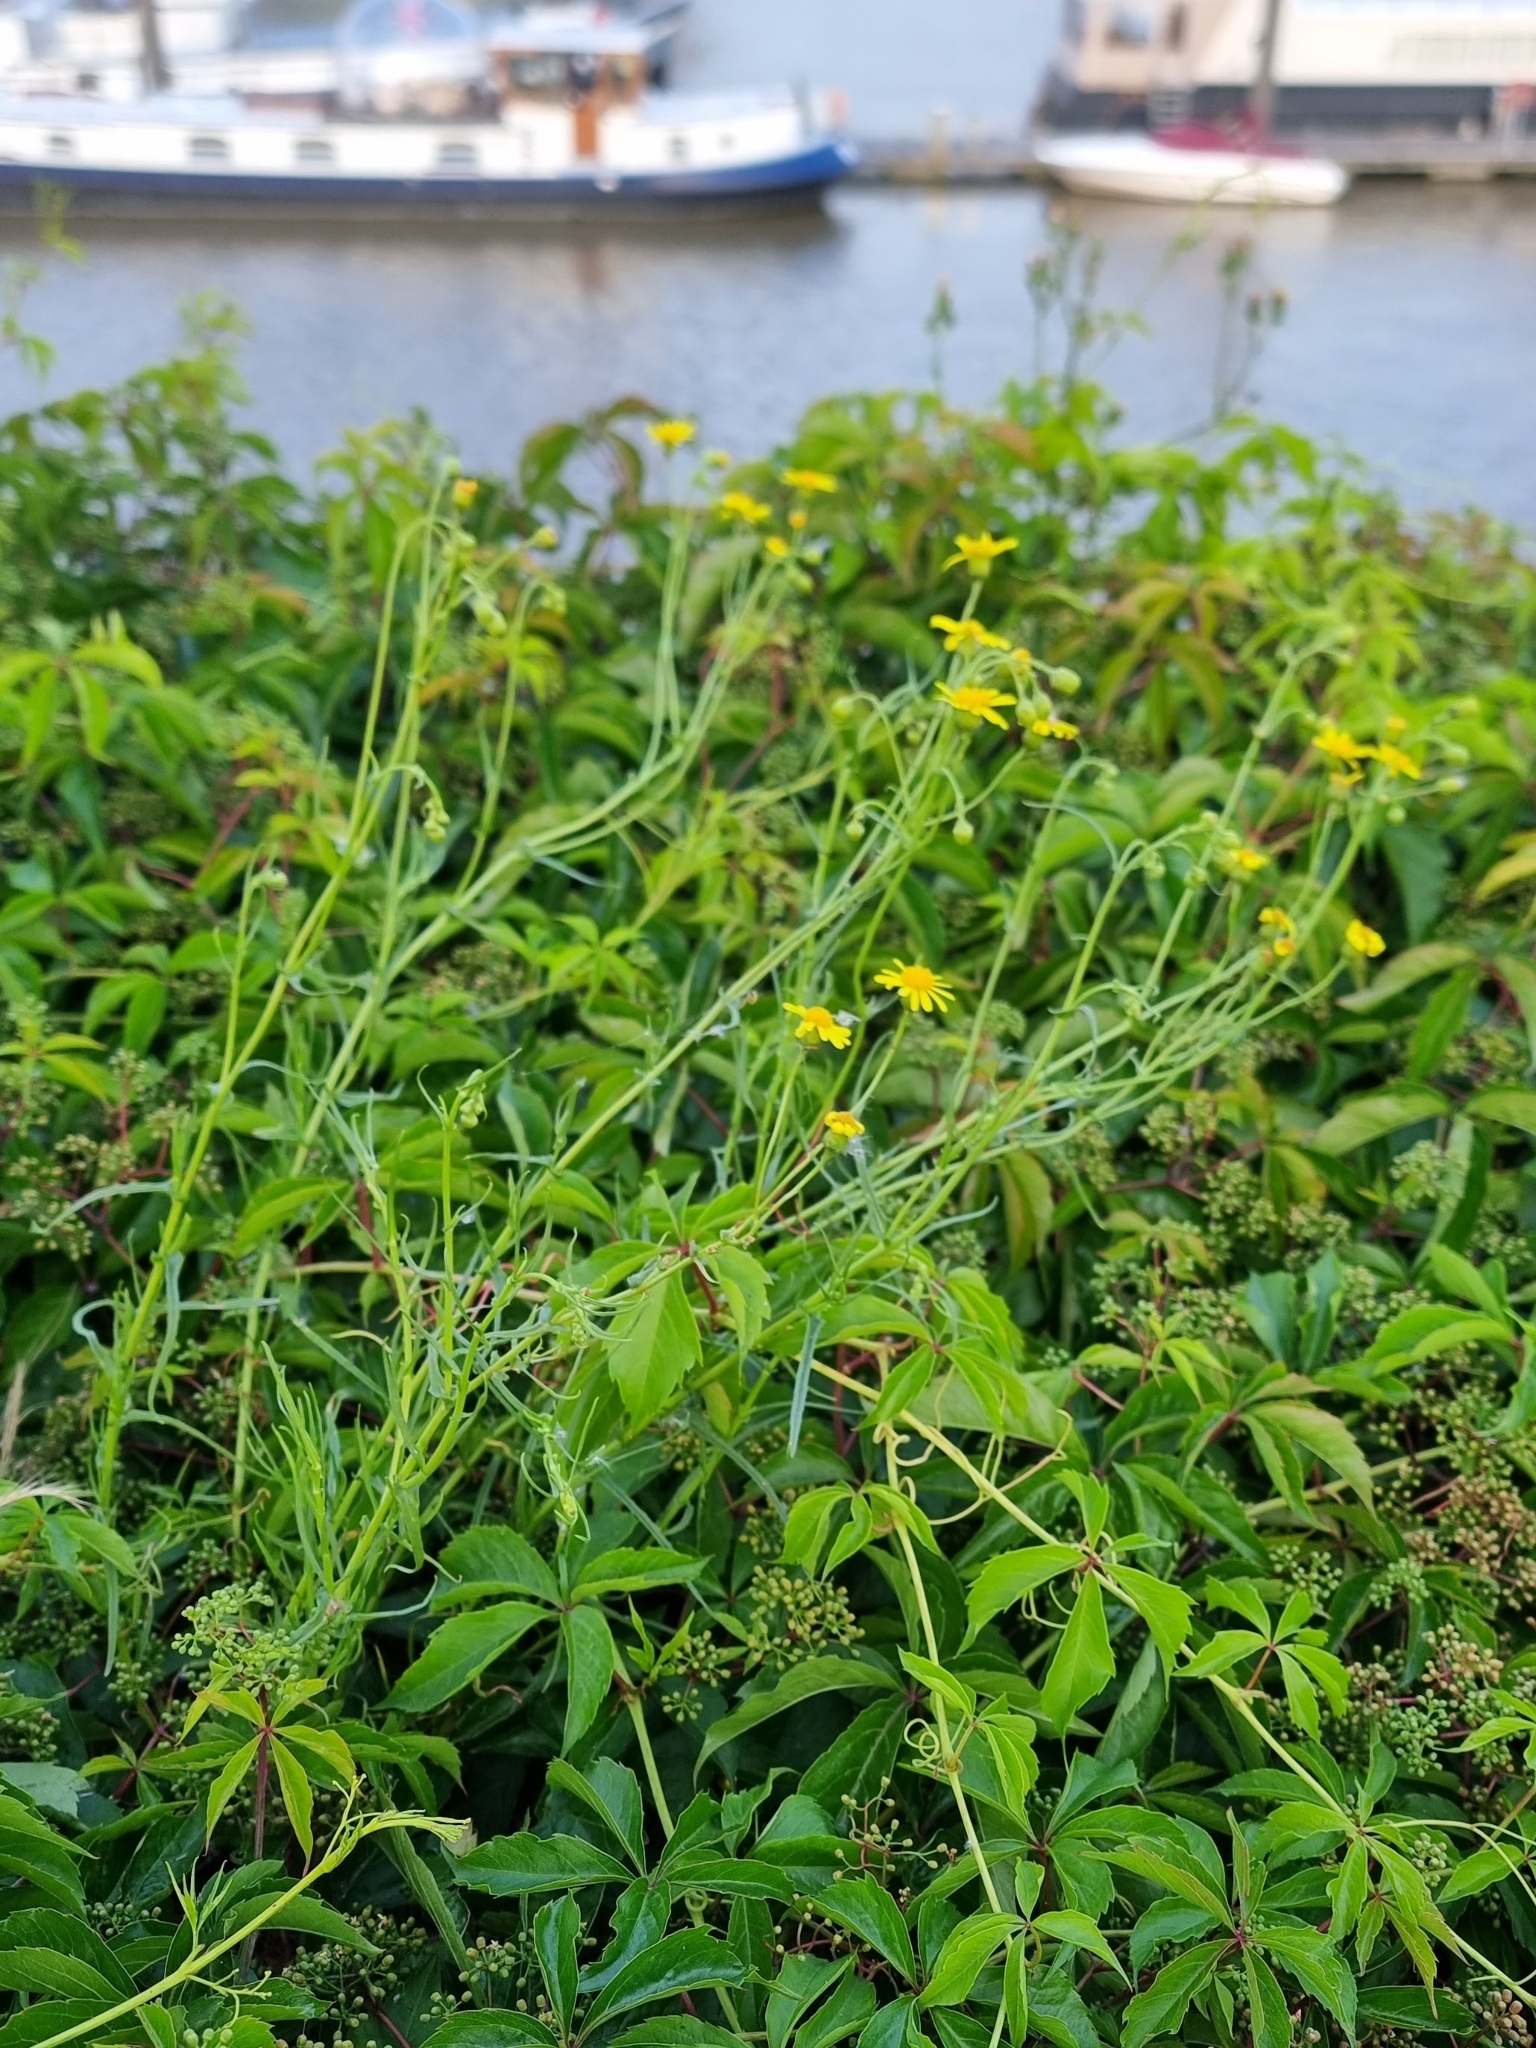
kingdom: Plantae
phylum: Tracheophyta
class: Magnoliopsida
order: Asterales
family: Asteraceae
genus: Senecio
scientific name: Senecio inaequidens
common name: Narrow-leaved ragwort
